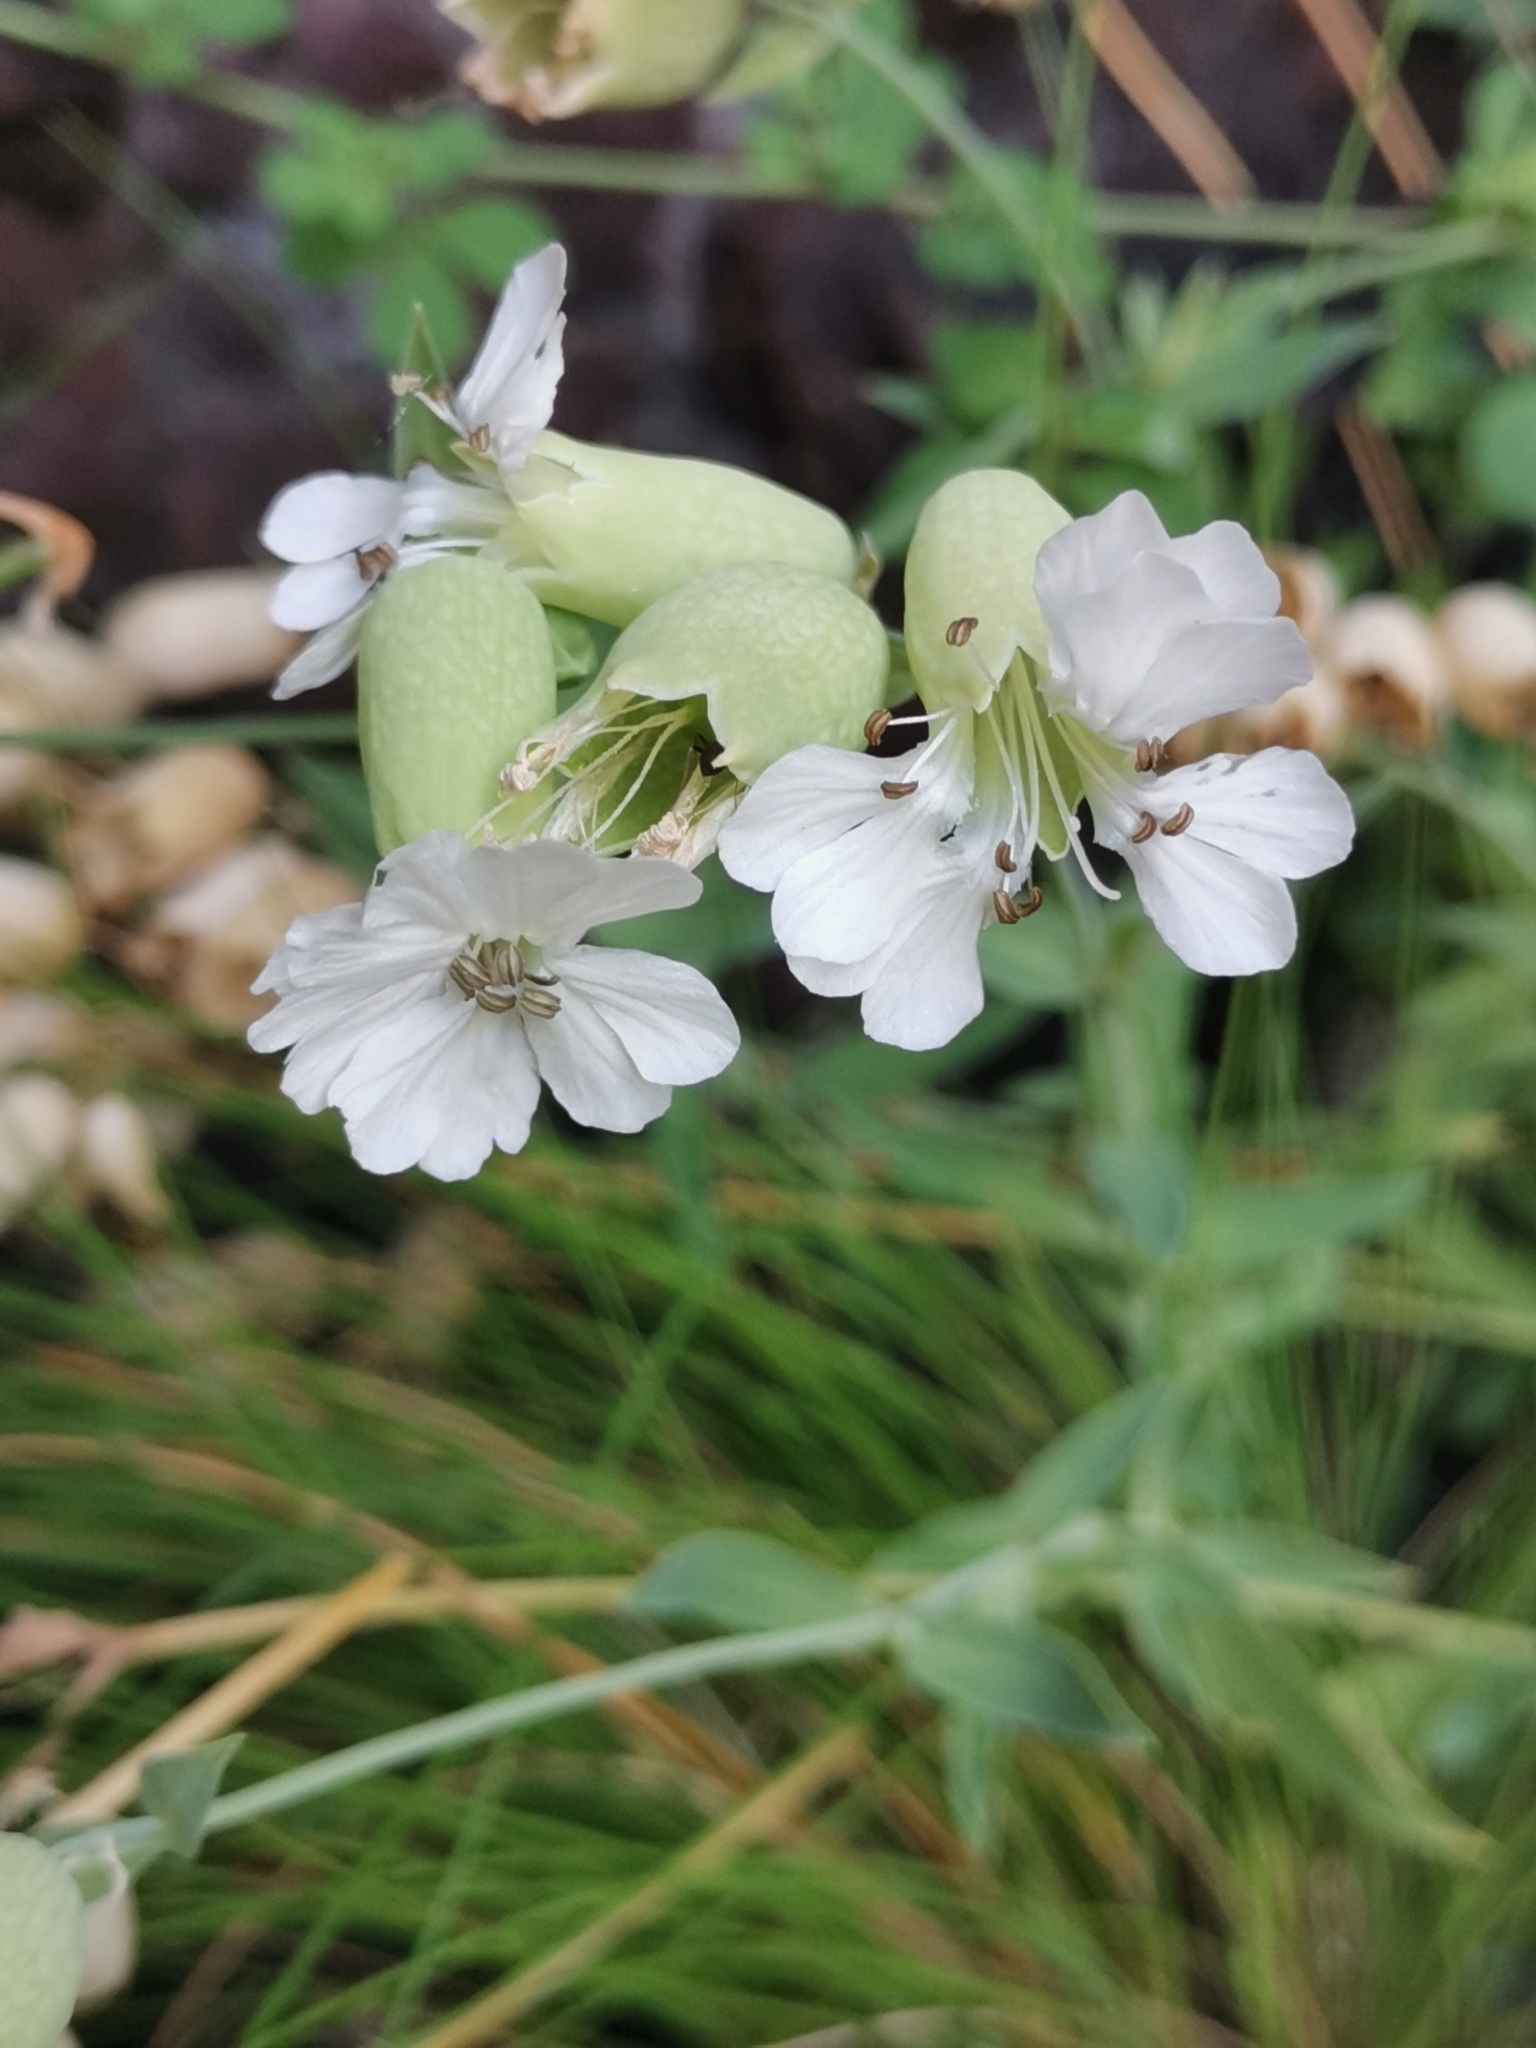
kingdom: Plantae
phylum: Tracheophyta
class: Magnoliopsida
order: Caryophyllales
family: Caryophyllaceae
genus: Silene
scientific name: Silene uniflora
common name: Sea campion
